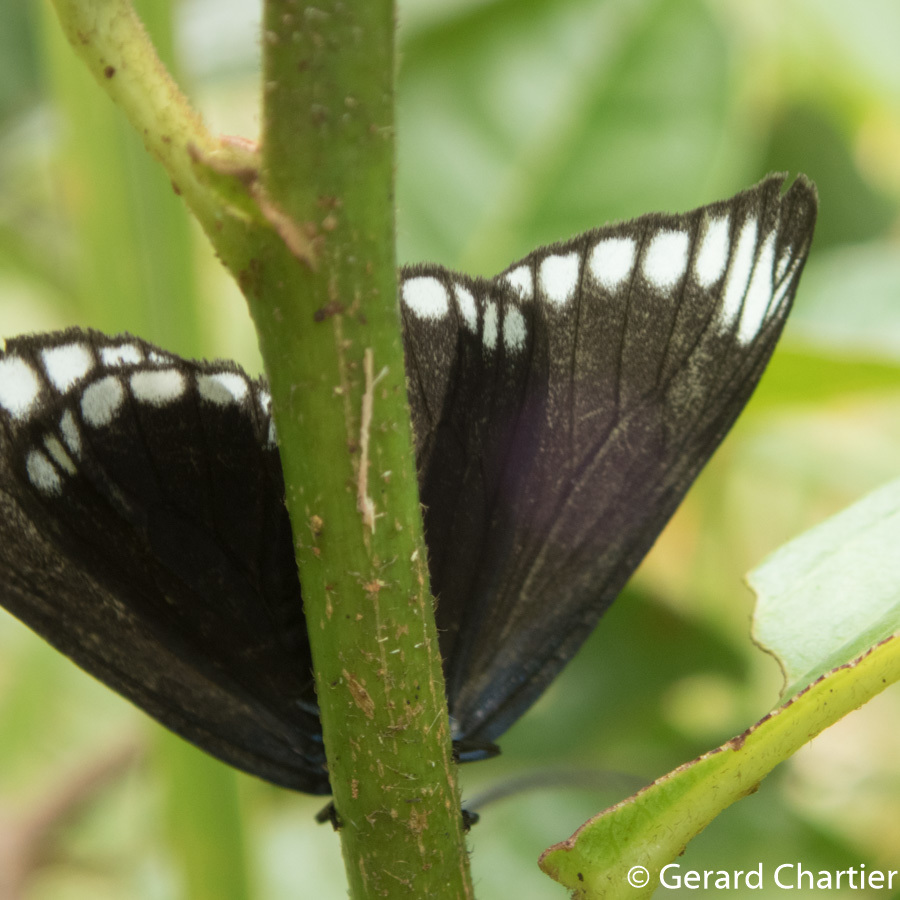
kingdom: Animalia
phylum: Arthropoda
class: Insecta
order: Lepidoptera
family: Zygaenidae
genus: Cyclosia
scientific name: Cyclosia panthona
